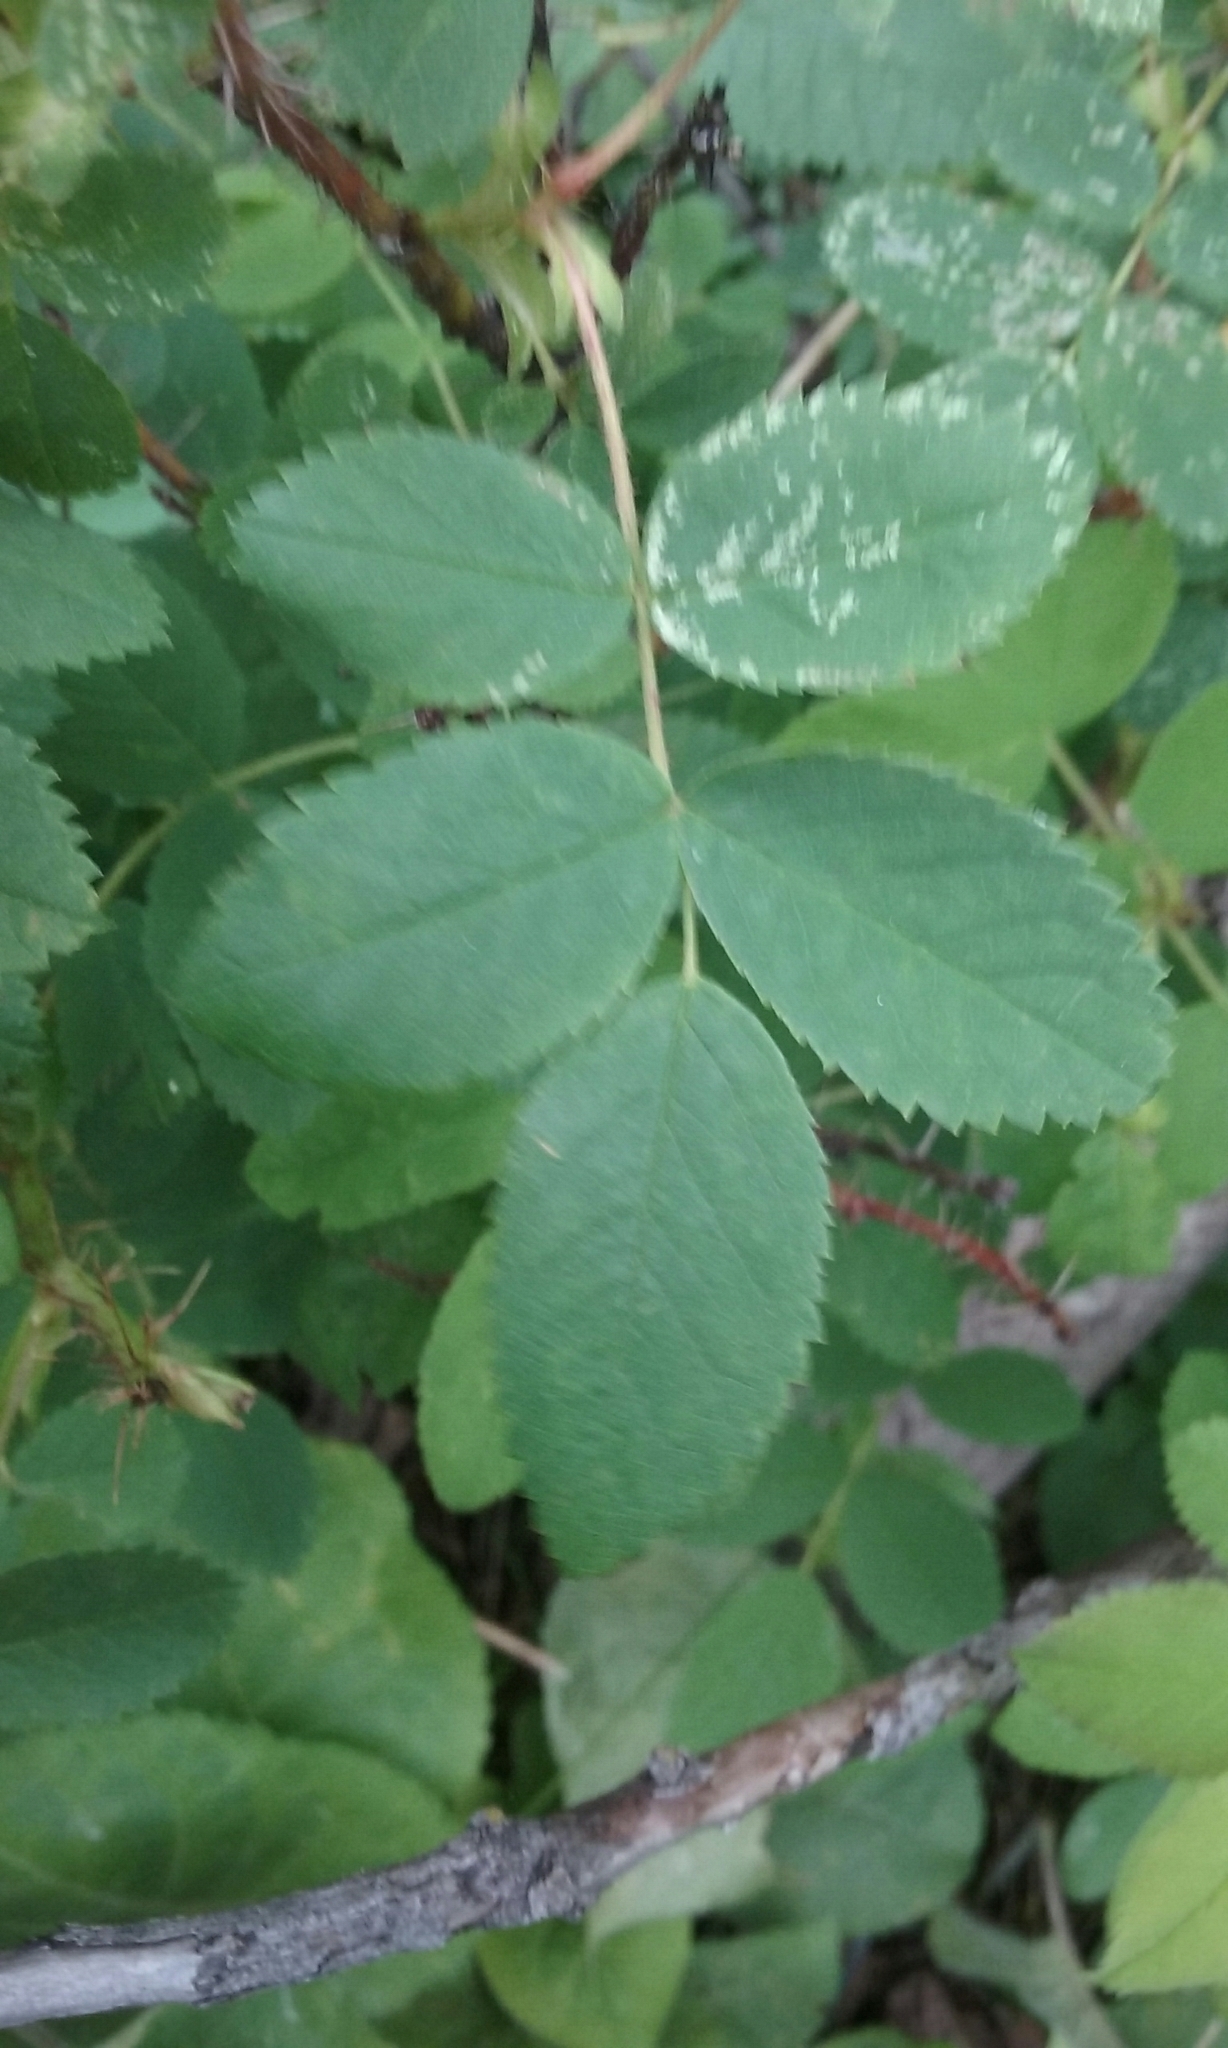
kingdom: Plantae
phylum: Tracheophyta
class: Magnoliopsida
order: Rosales
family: Rosaceae
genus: Rosa
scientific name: Rosa acicularis
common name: Prickly rose
